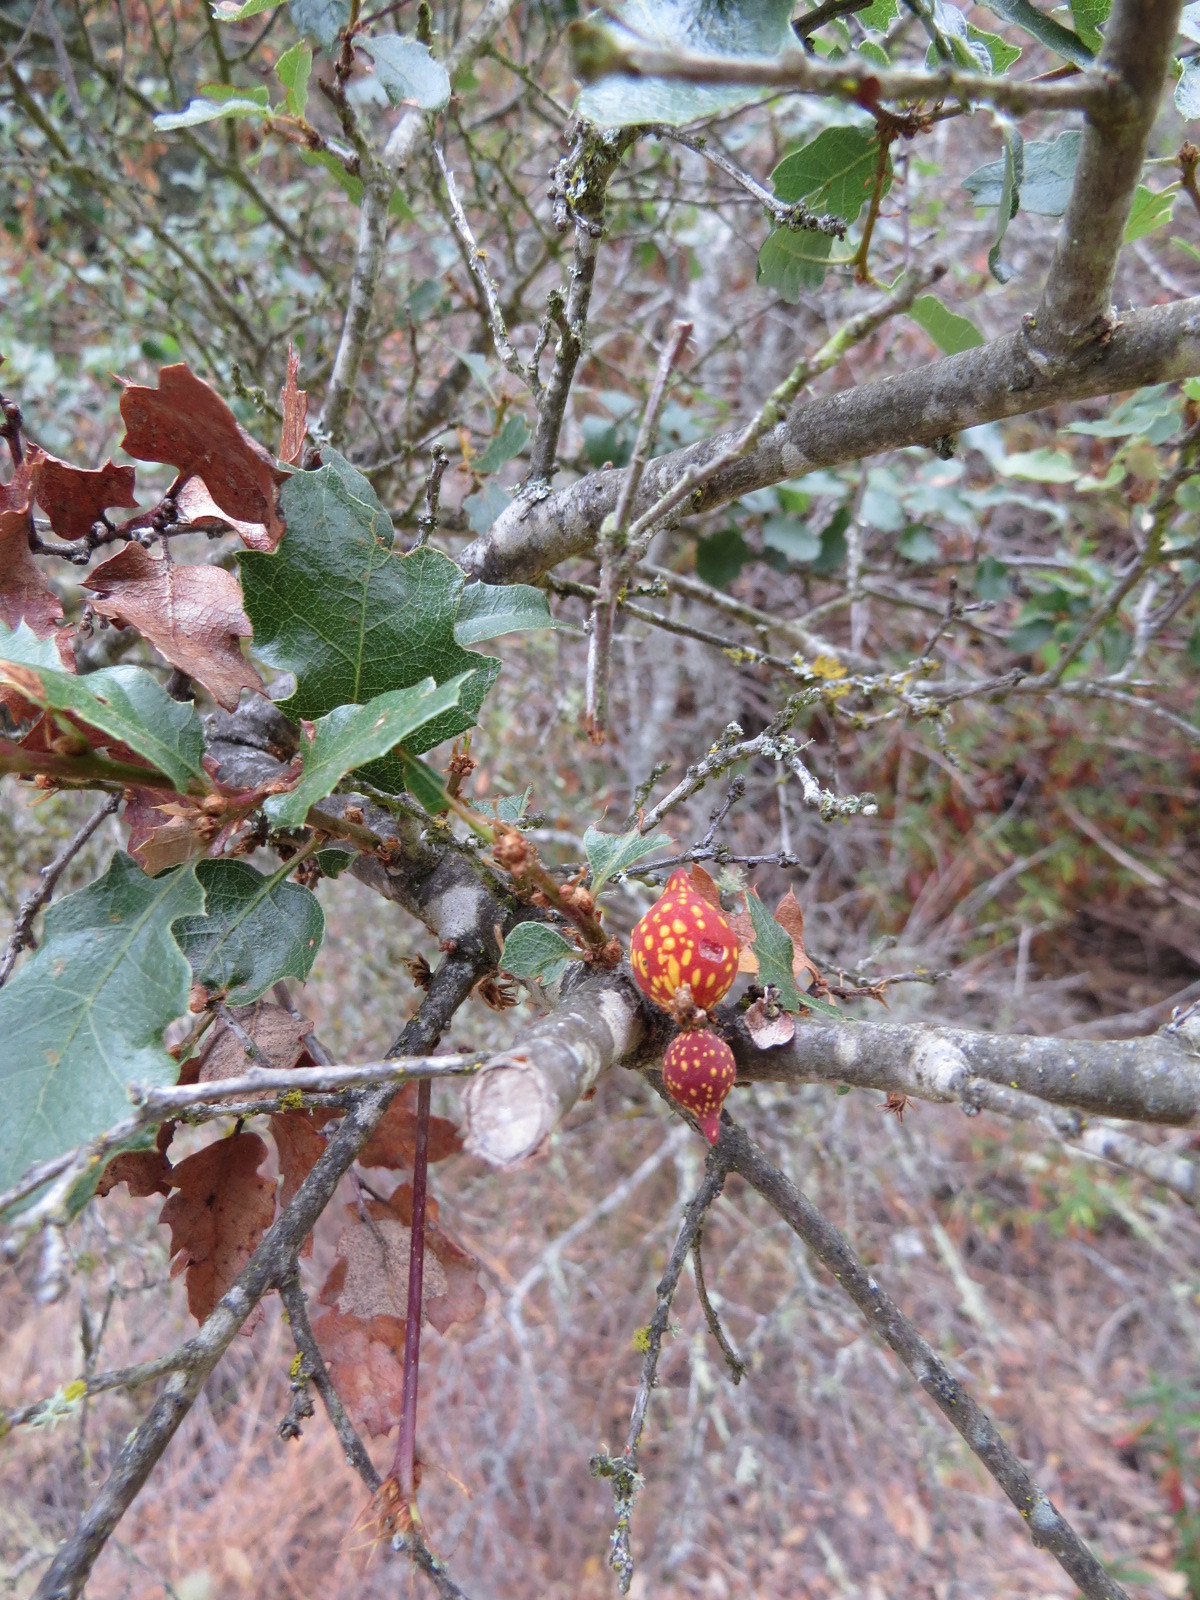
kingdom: Animalia
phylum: Arthropoda
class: Insecta
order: Hymenoptera
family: Cynipidae
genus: Burnettweldia
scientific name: Burnettweldia
